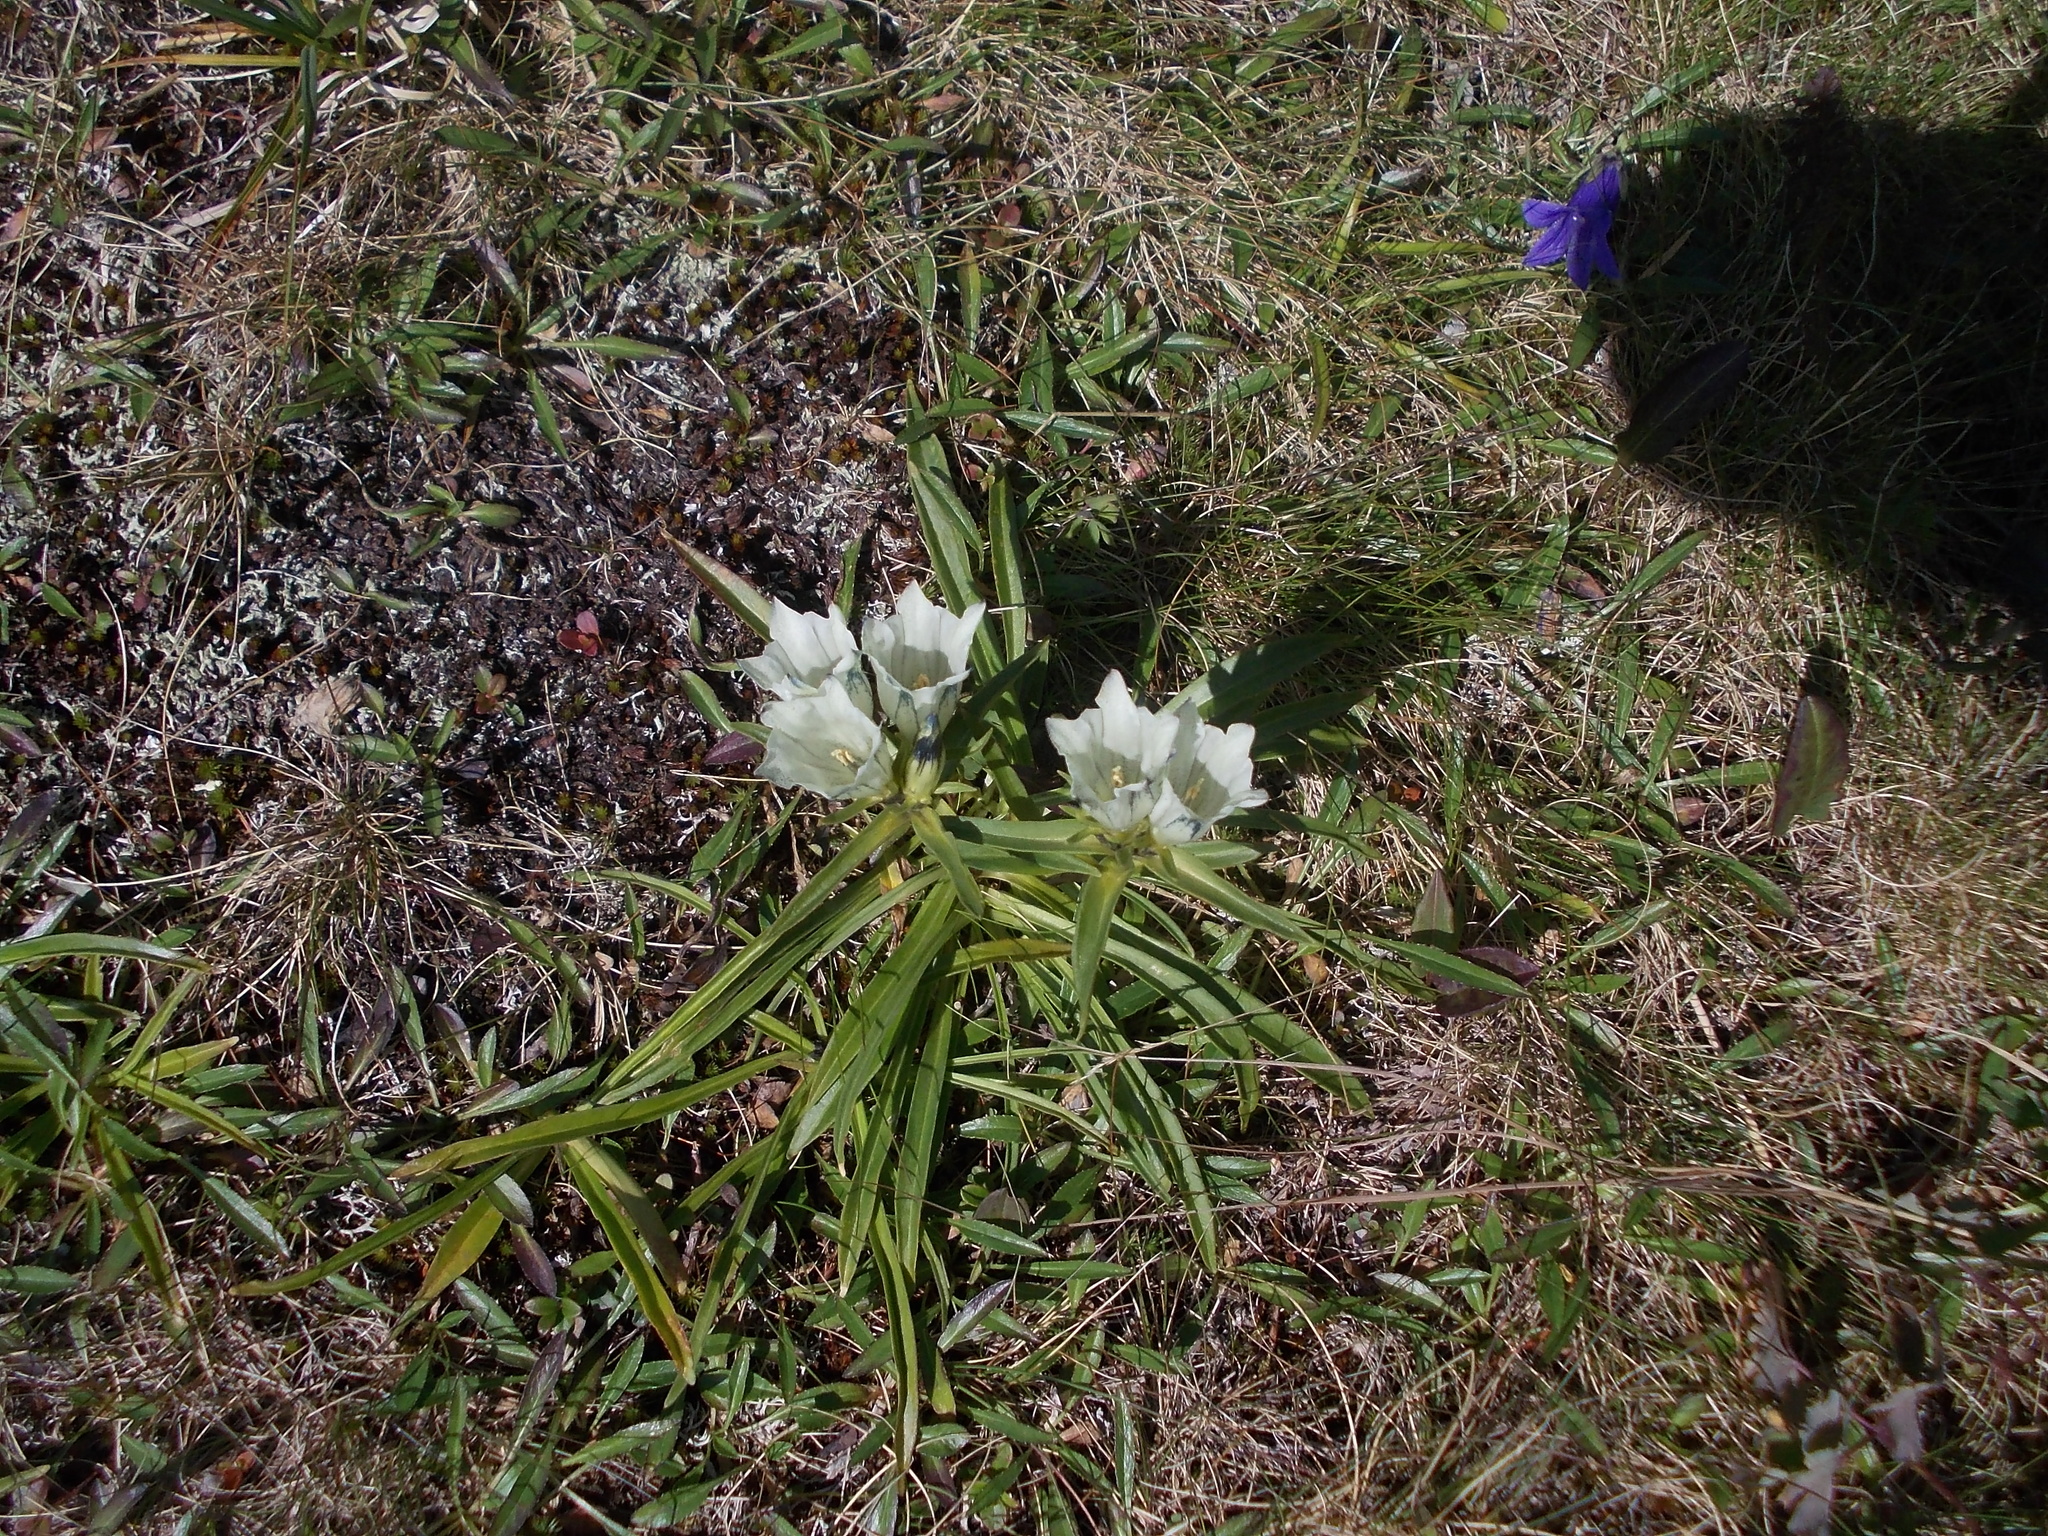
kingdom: Plantae
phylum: Tracheophyta
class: Magnoliopsida
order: Gentianales
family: Gentianaceae
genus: Gentiana
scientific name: Gentiana algida
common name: Arctic gentian
